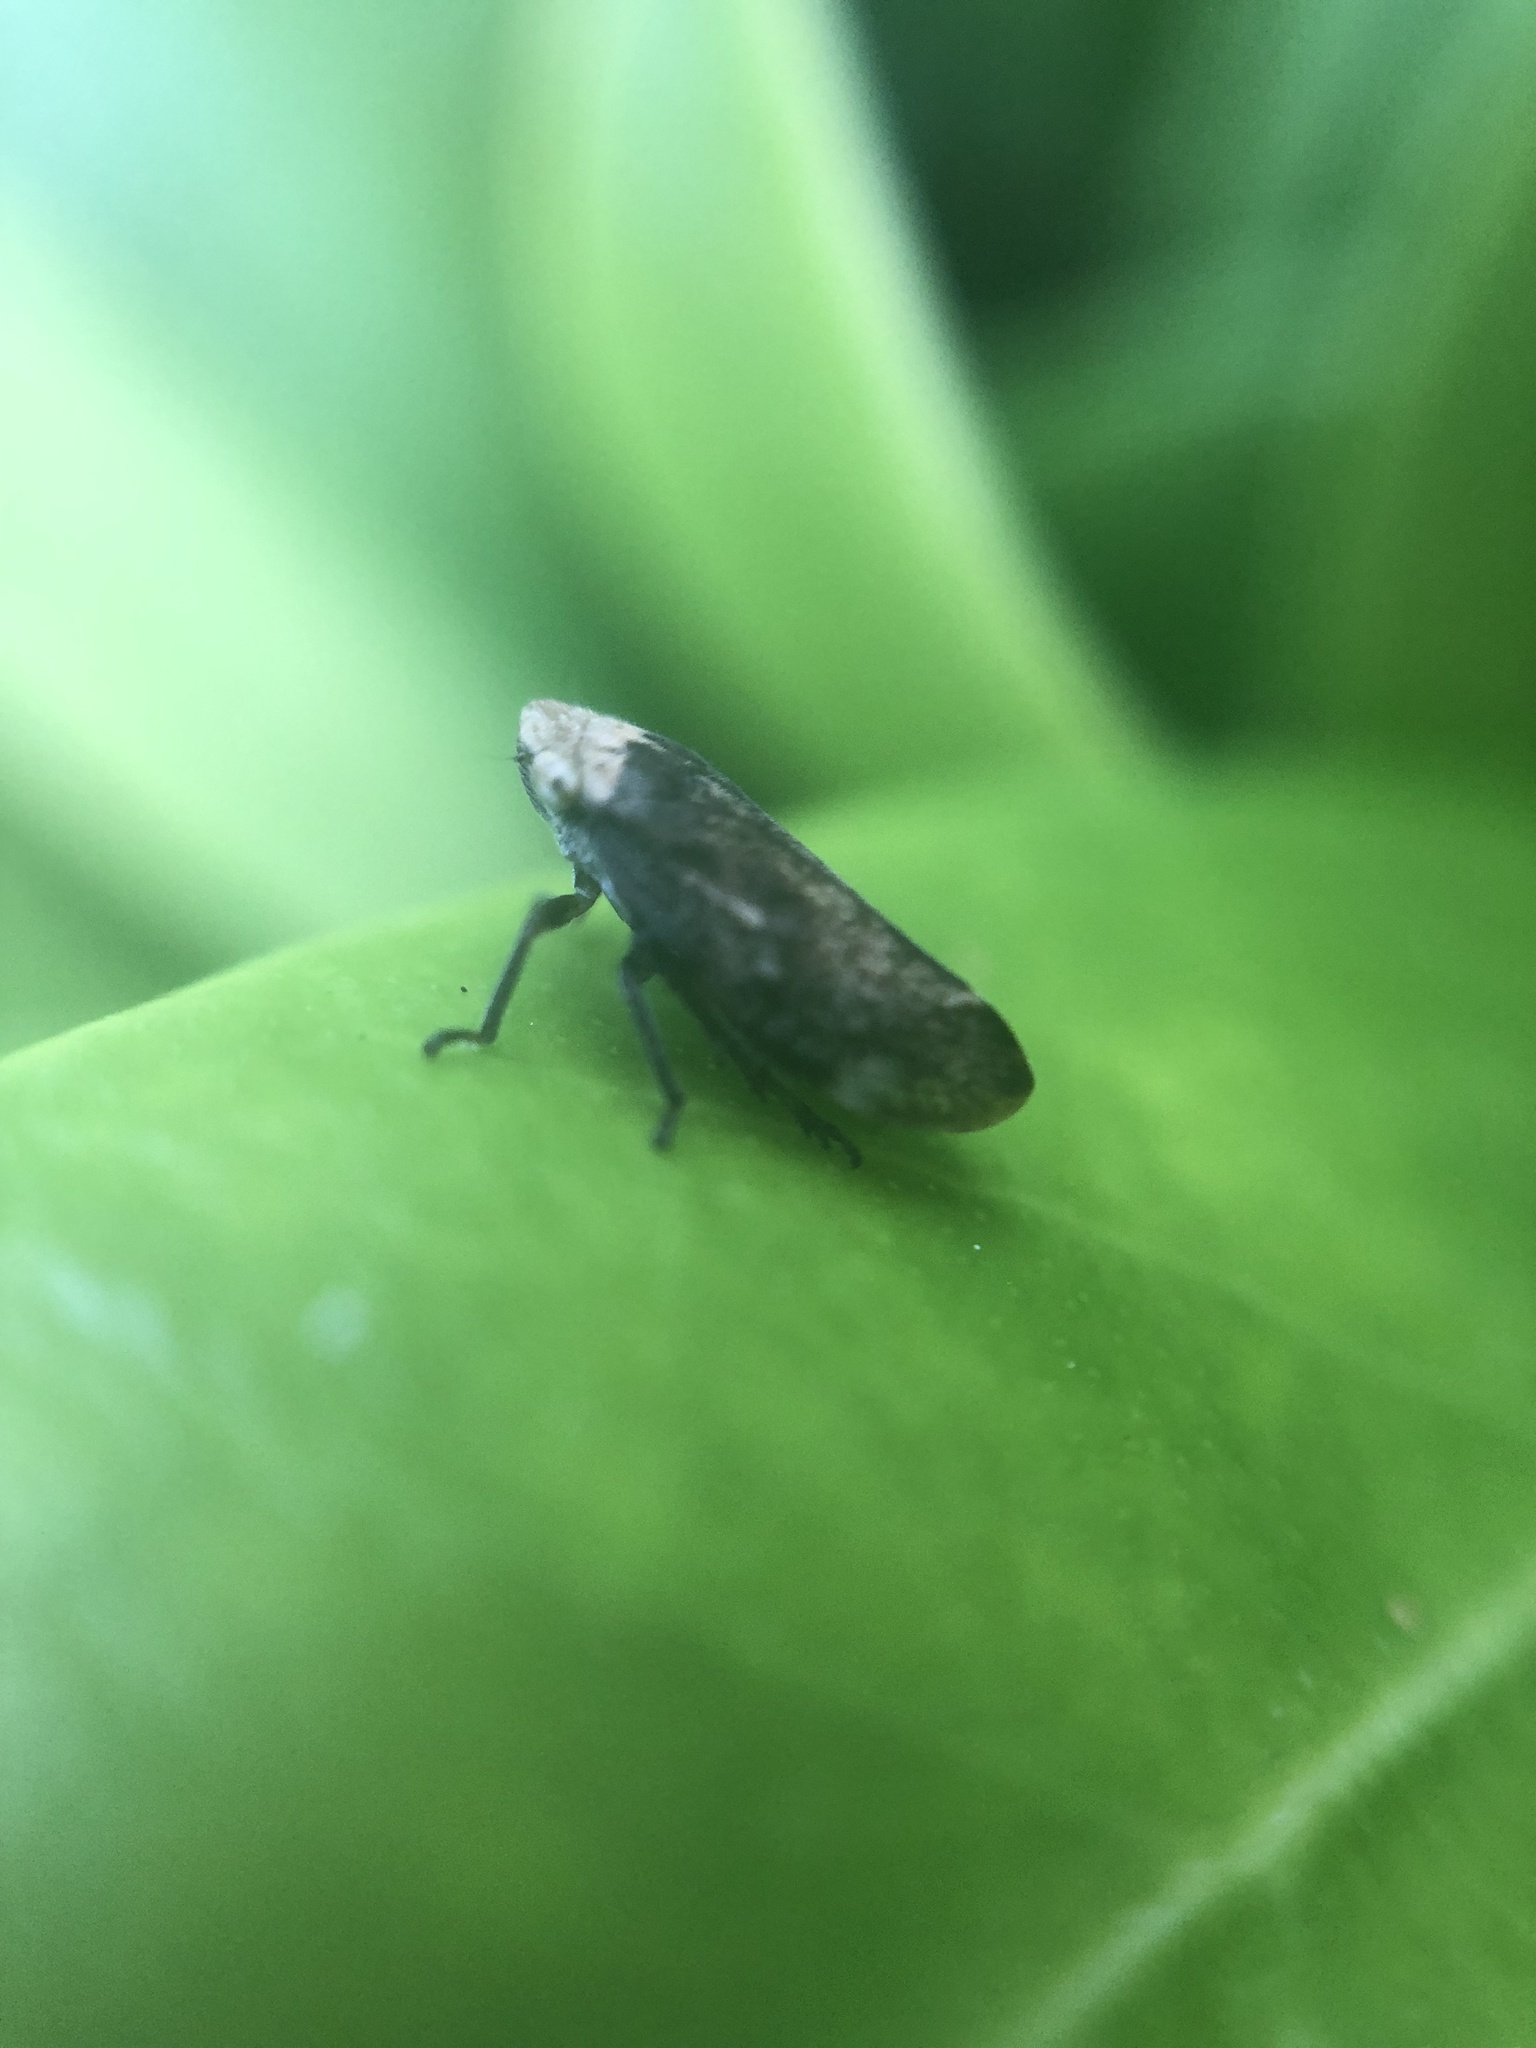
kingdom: Animalia
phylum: Arthropoda
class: Insecta
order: Hemiptera
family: Aphrophoridae
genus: Philaenus
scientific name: Philaenus spumarius
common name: Meadow spittlebug
